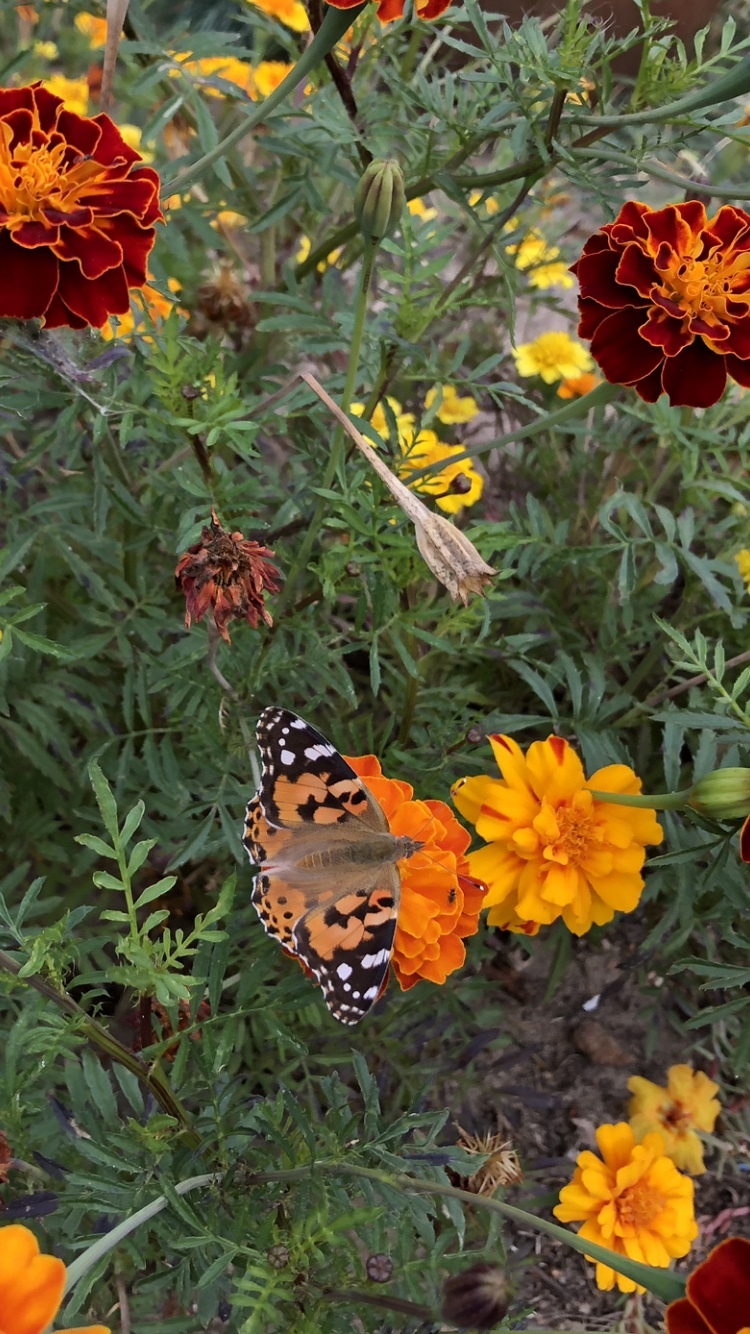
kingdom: Animalia
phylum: Arthropoda
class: Insecta
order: Lepidoptera
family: Nymphalidae
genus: Vanessa
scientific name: Vanessa cardui
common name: Painted lady
